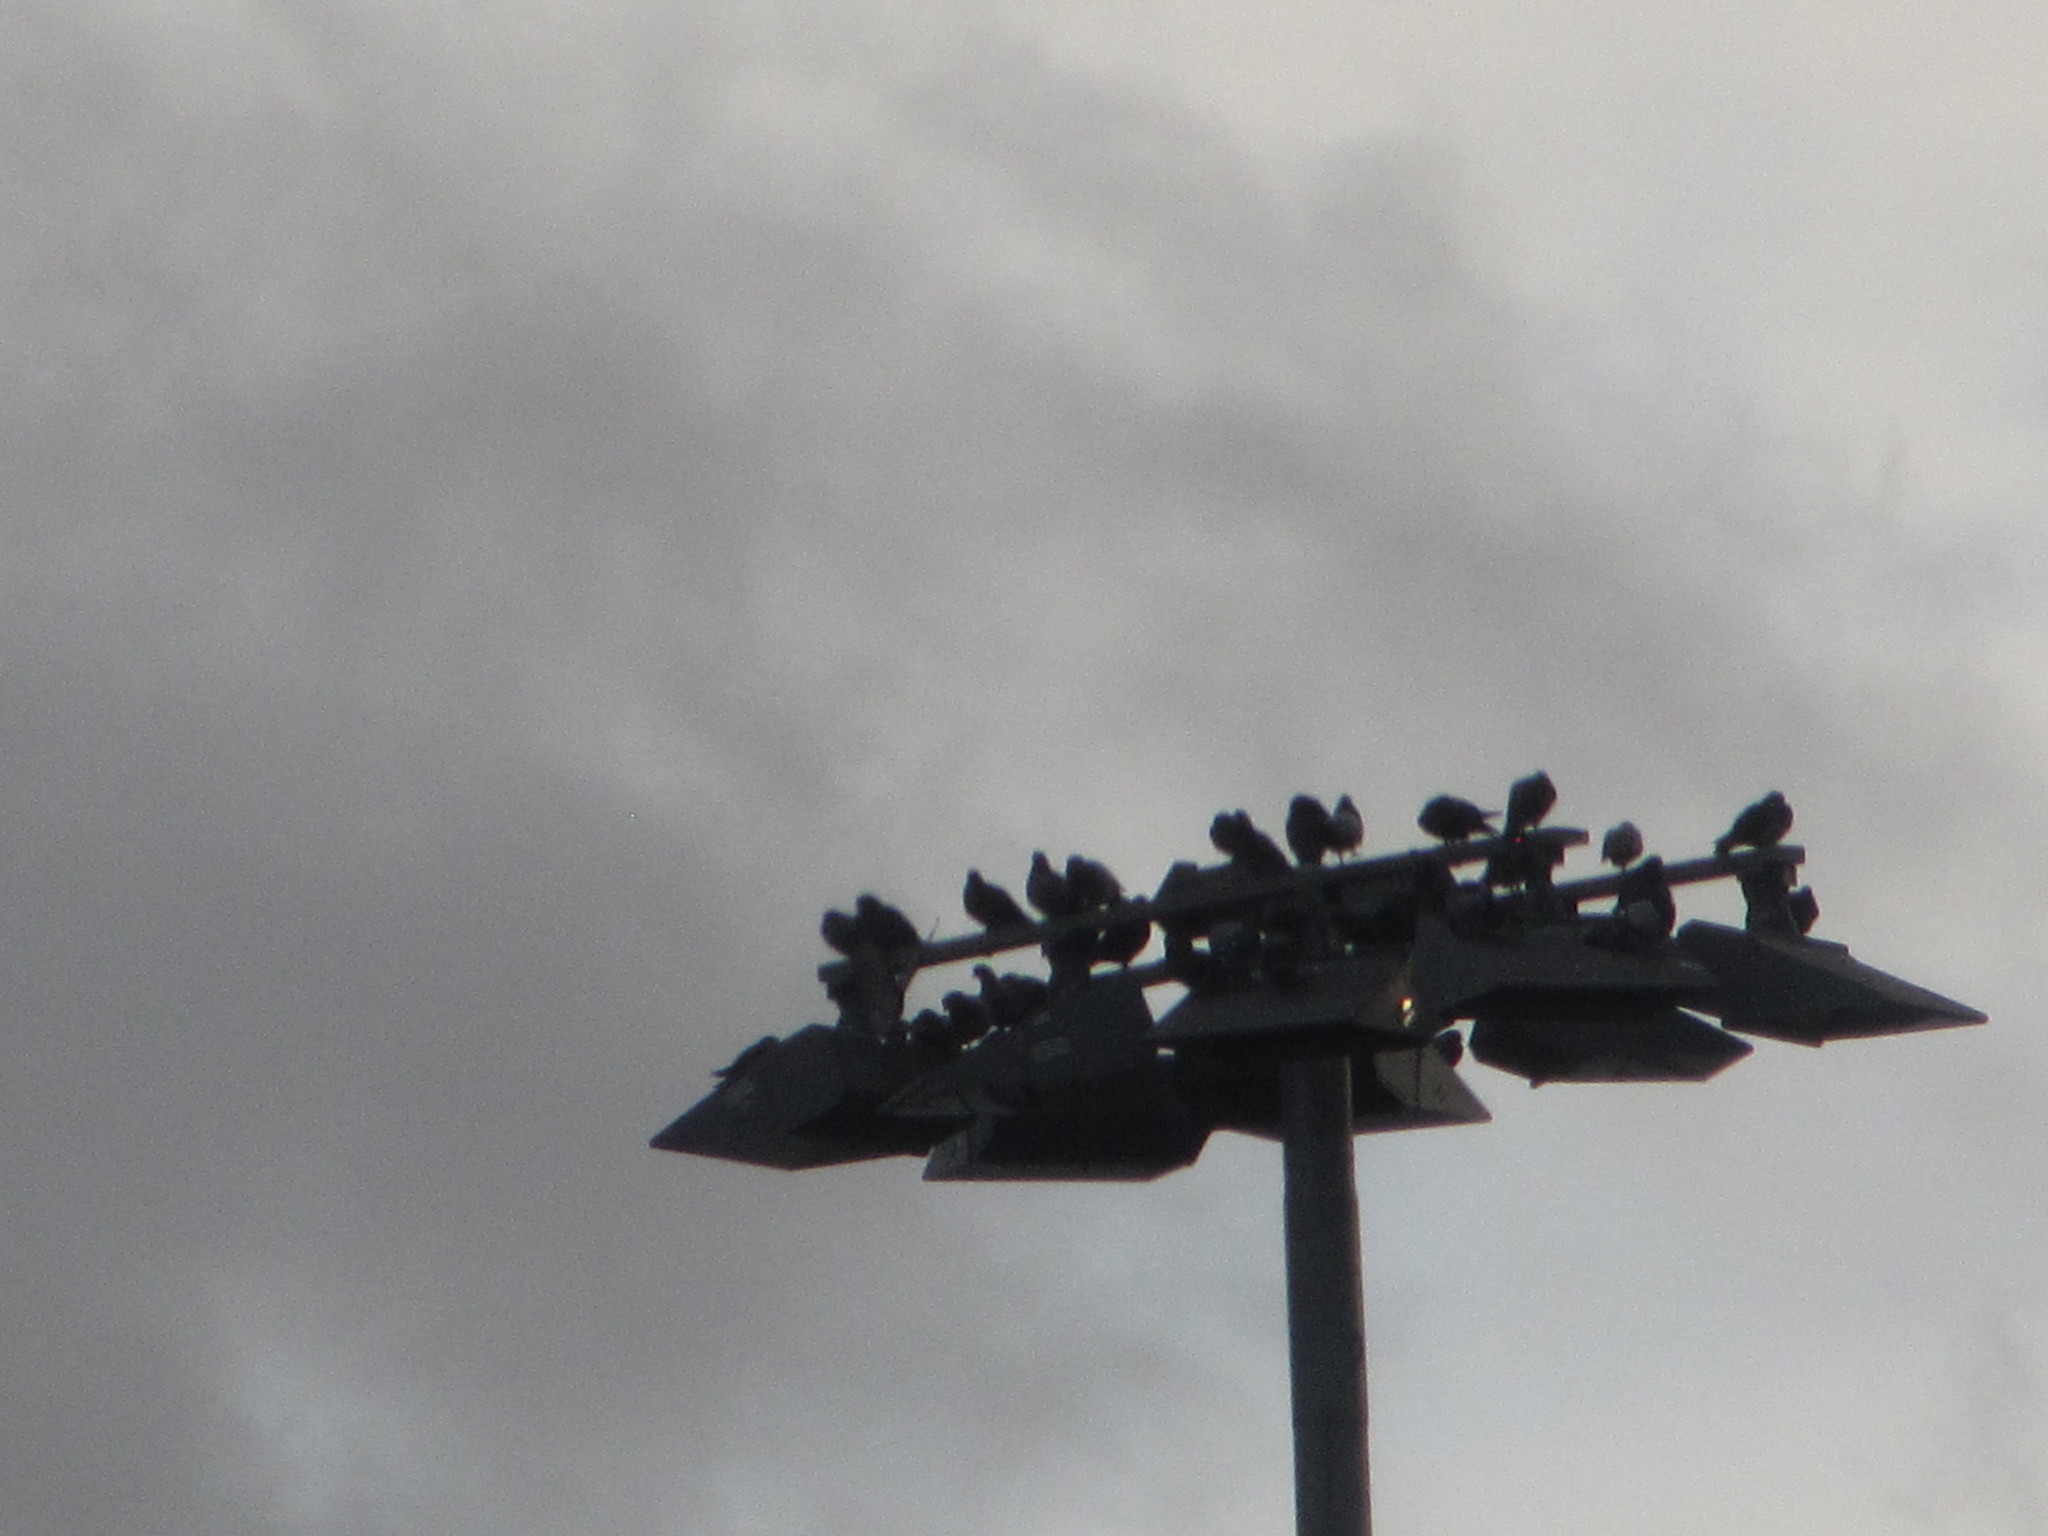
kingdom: Animalia
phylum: Chordata
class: Aves
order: Columbiformes
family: Columbidae
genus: Columba
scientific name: Columba livia
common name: Rock pigeon
